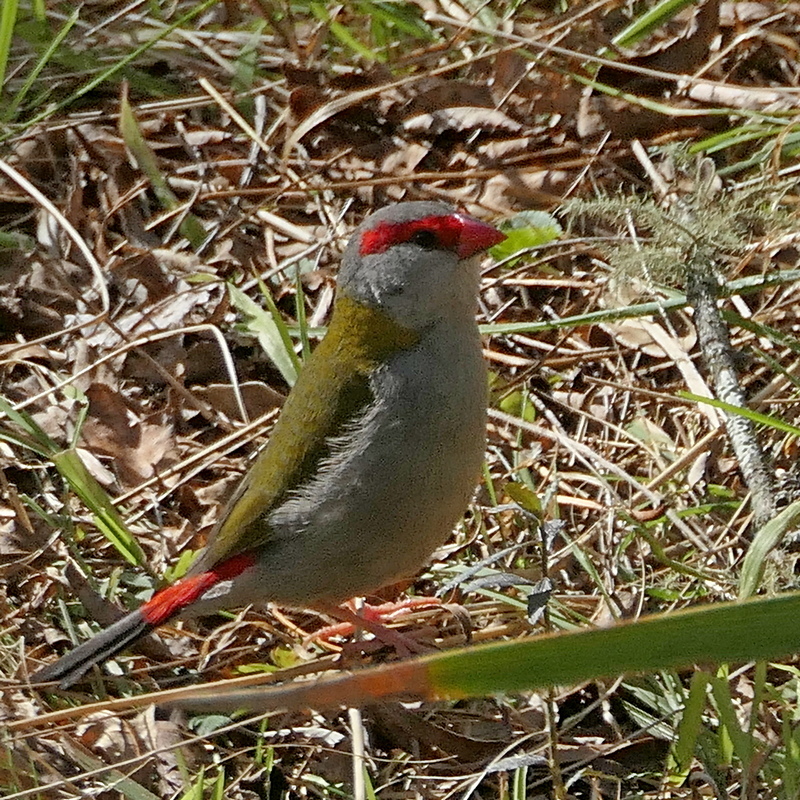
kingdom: Animalia
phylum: Chordata
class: Aves
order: Passeriformes
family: Estrildidae
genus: Neochmia
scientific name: Neochmia temporalis
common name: Red-browed finch
